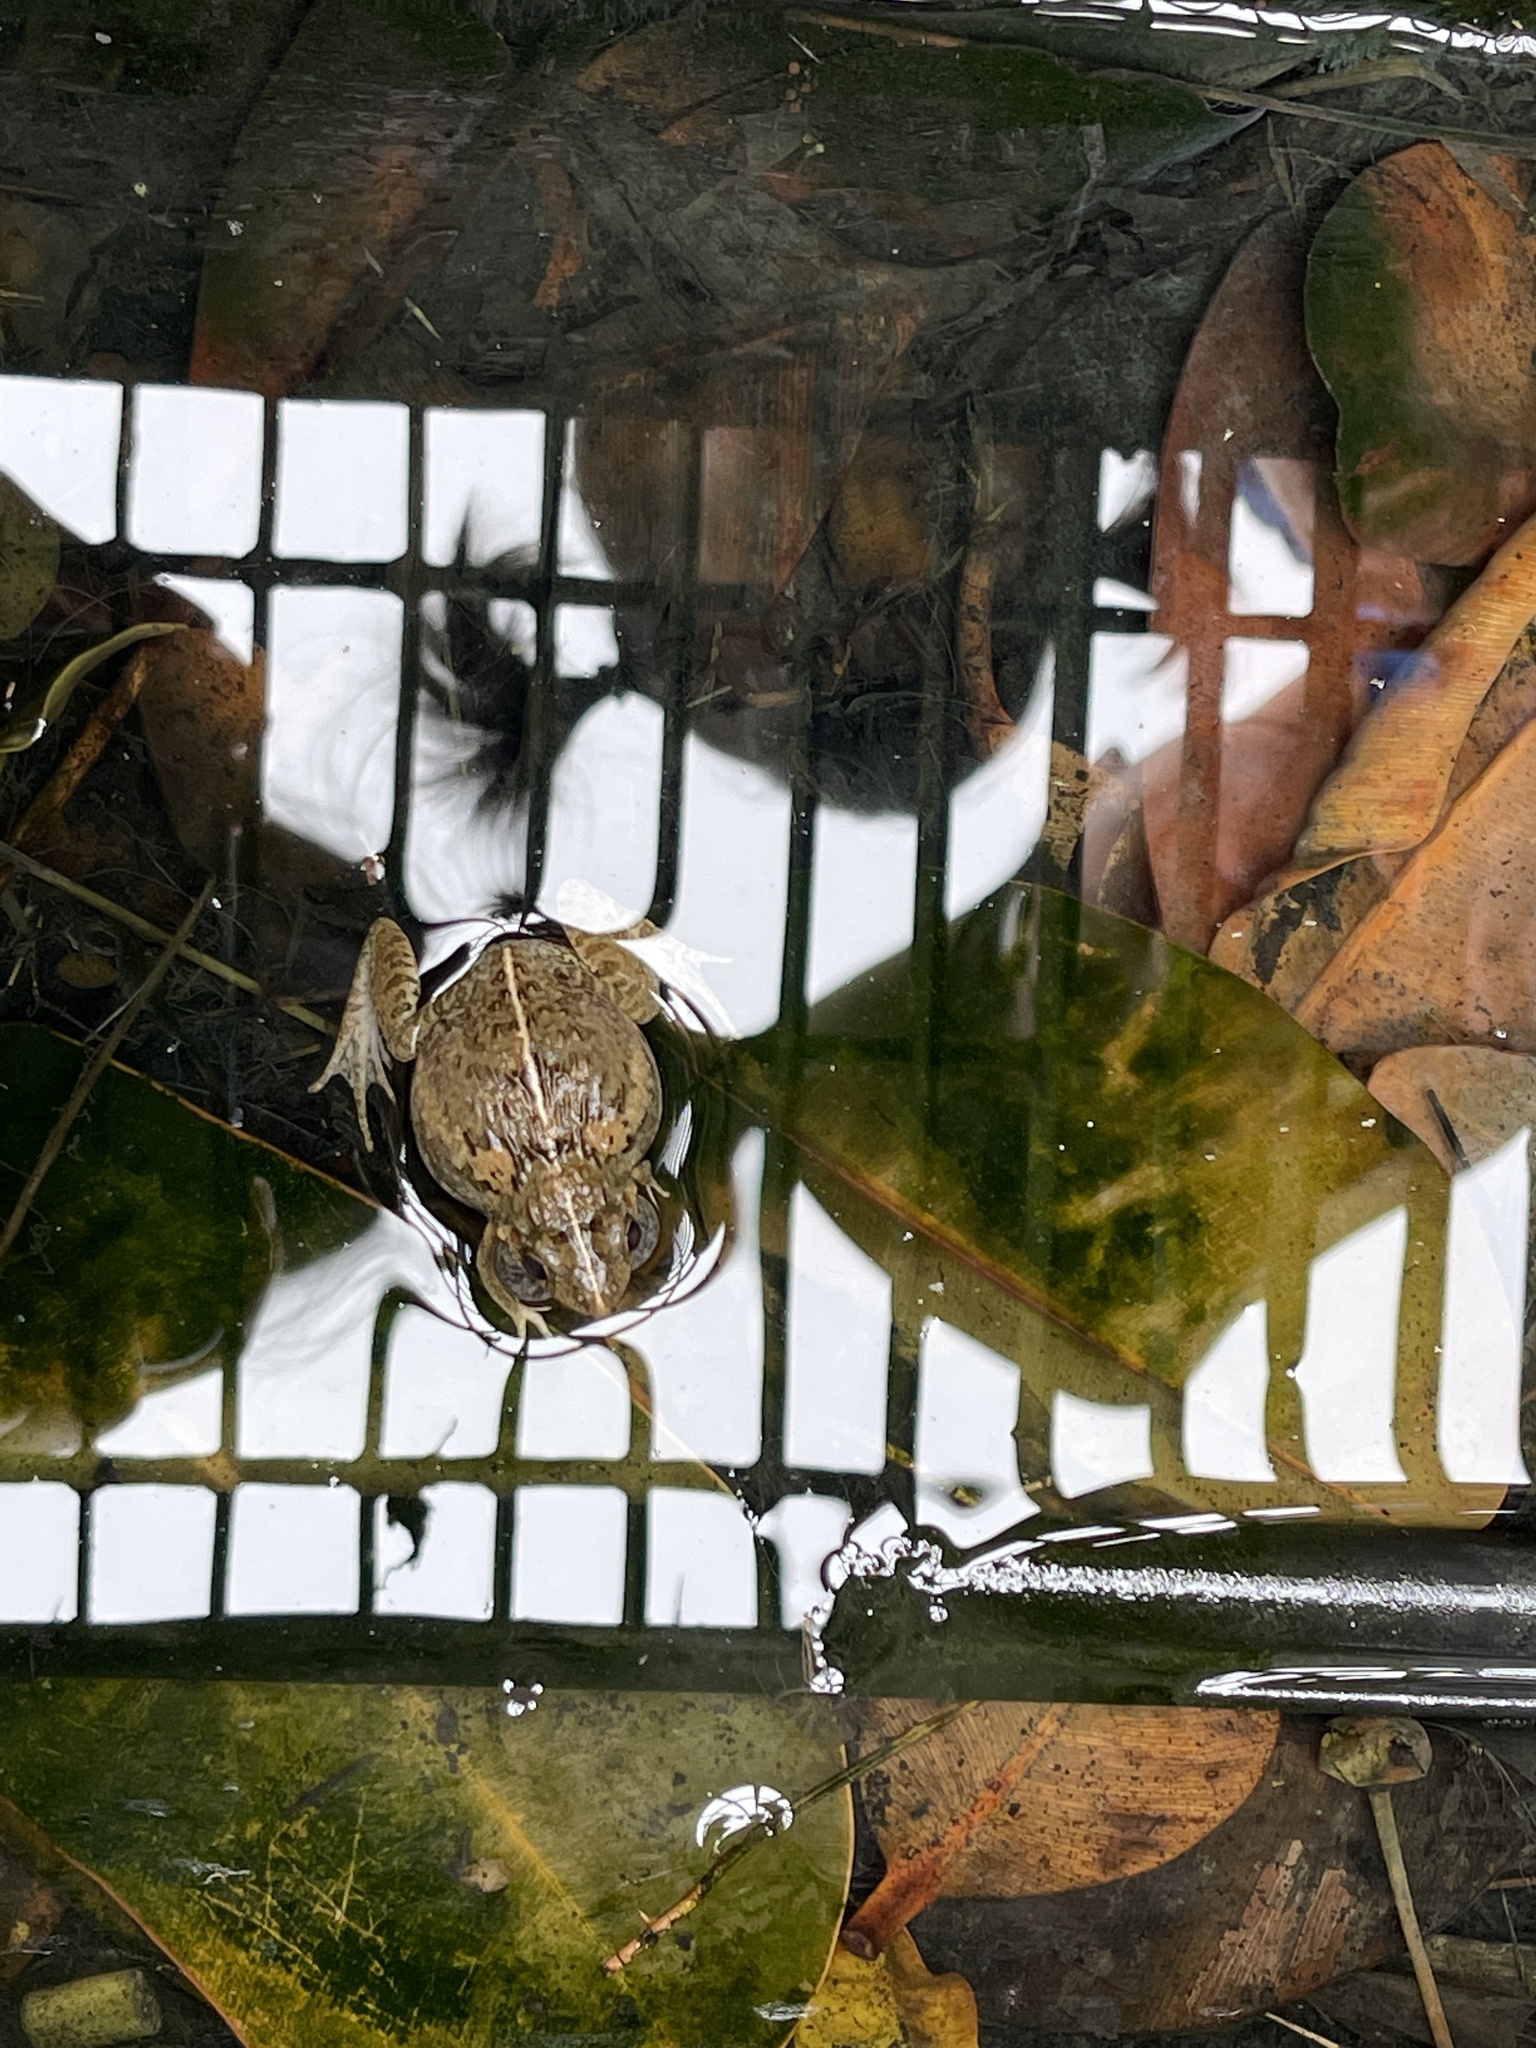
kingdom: Animalia
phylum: Chordata
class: Amphibia
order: Anura
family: Dicroglossidae
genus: Fejervarya
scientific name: Fejervarya limnocharis
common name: Asian grass frog/common pond frog/field frog/grass frog/indian rice frog
